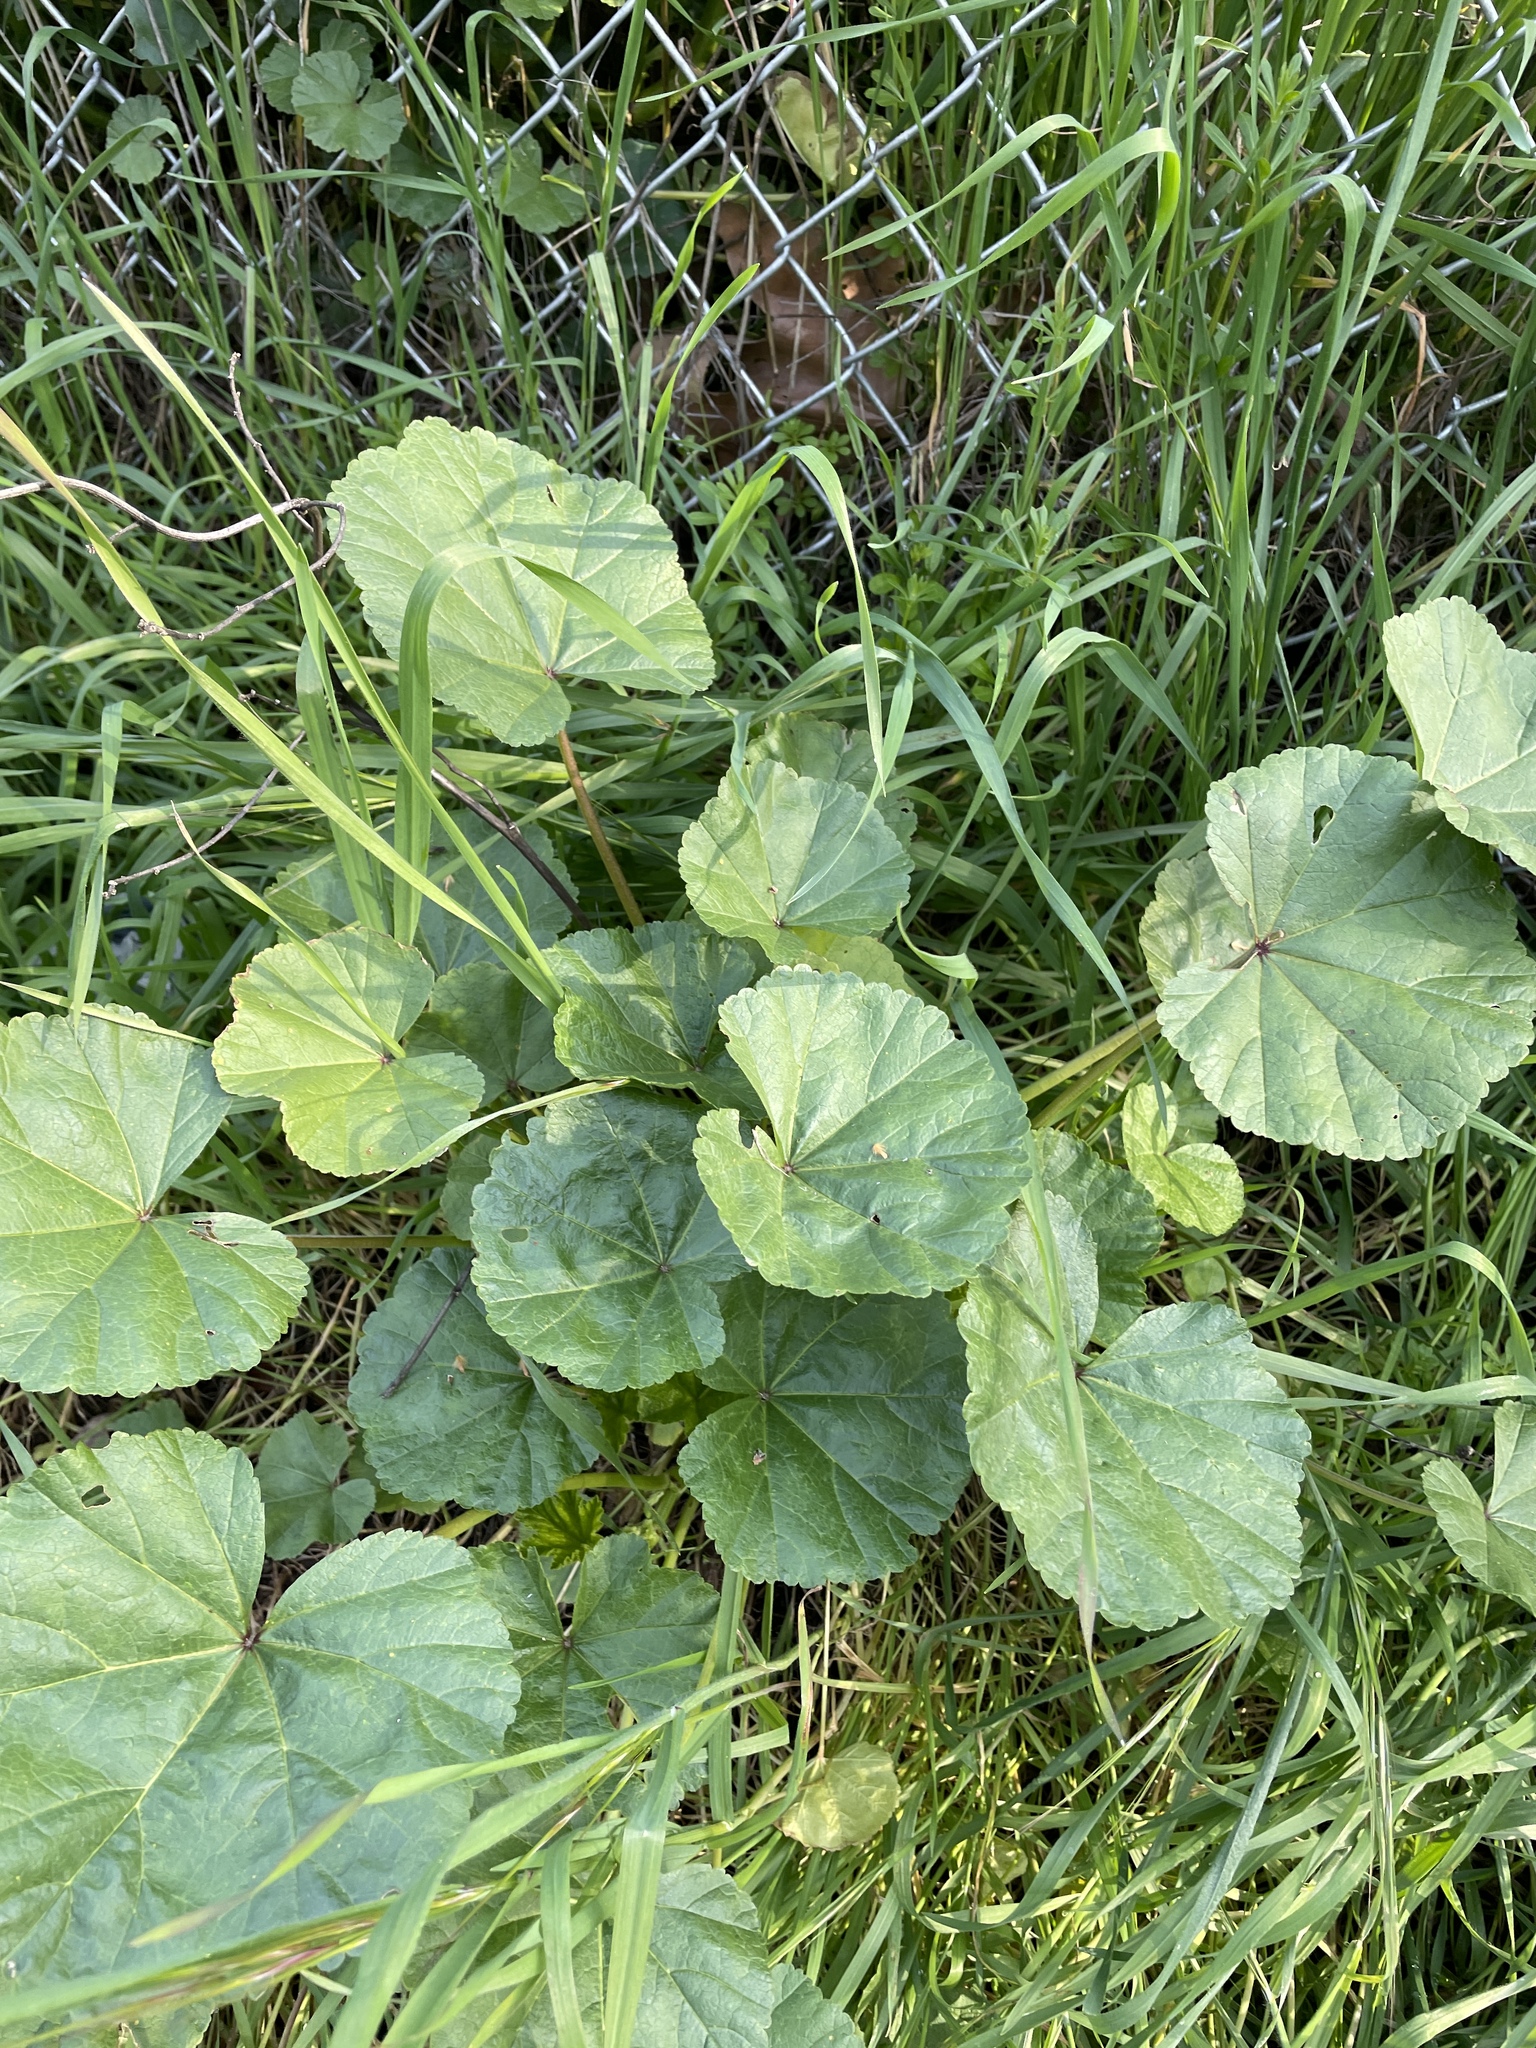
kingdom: Plantae
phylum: Tracheophyta
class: Magnoliopsida
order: Malvales
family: Malvaceae
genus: Malva
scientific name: Malva
